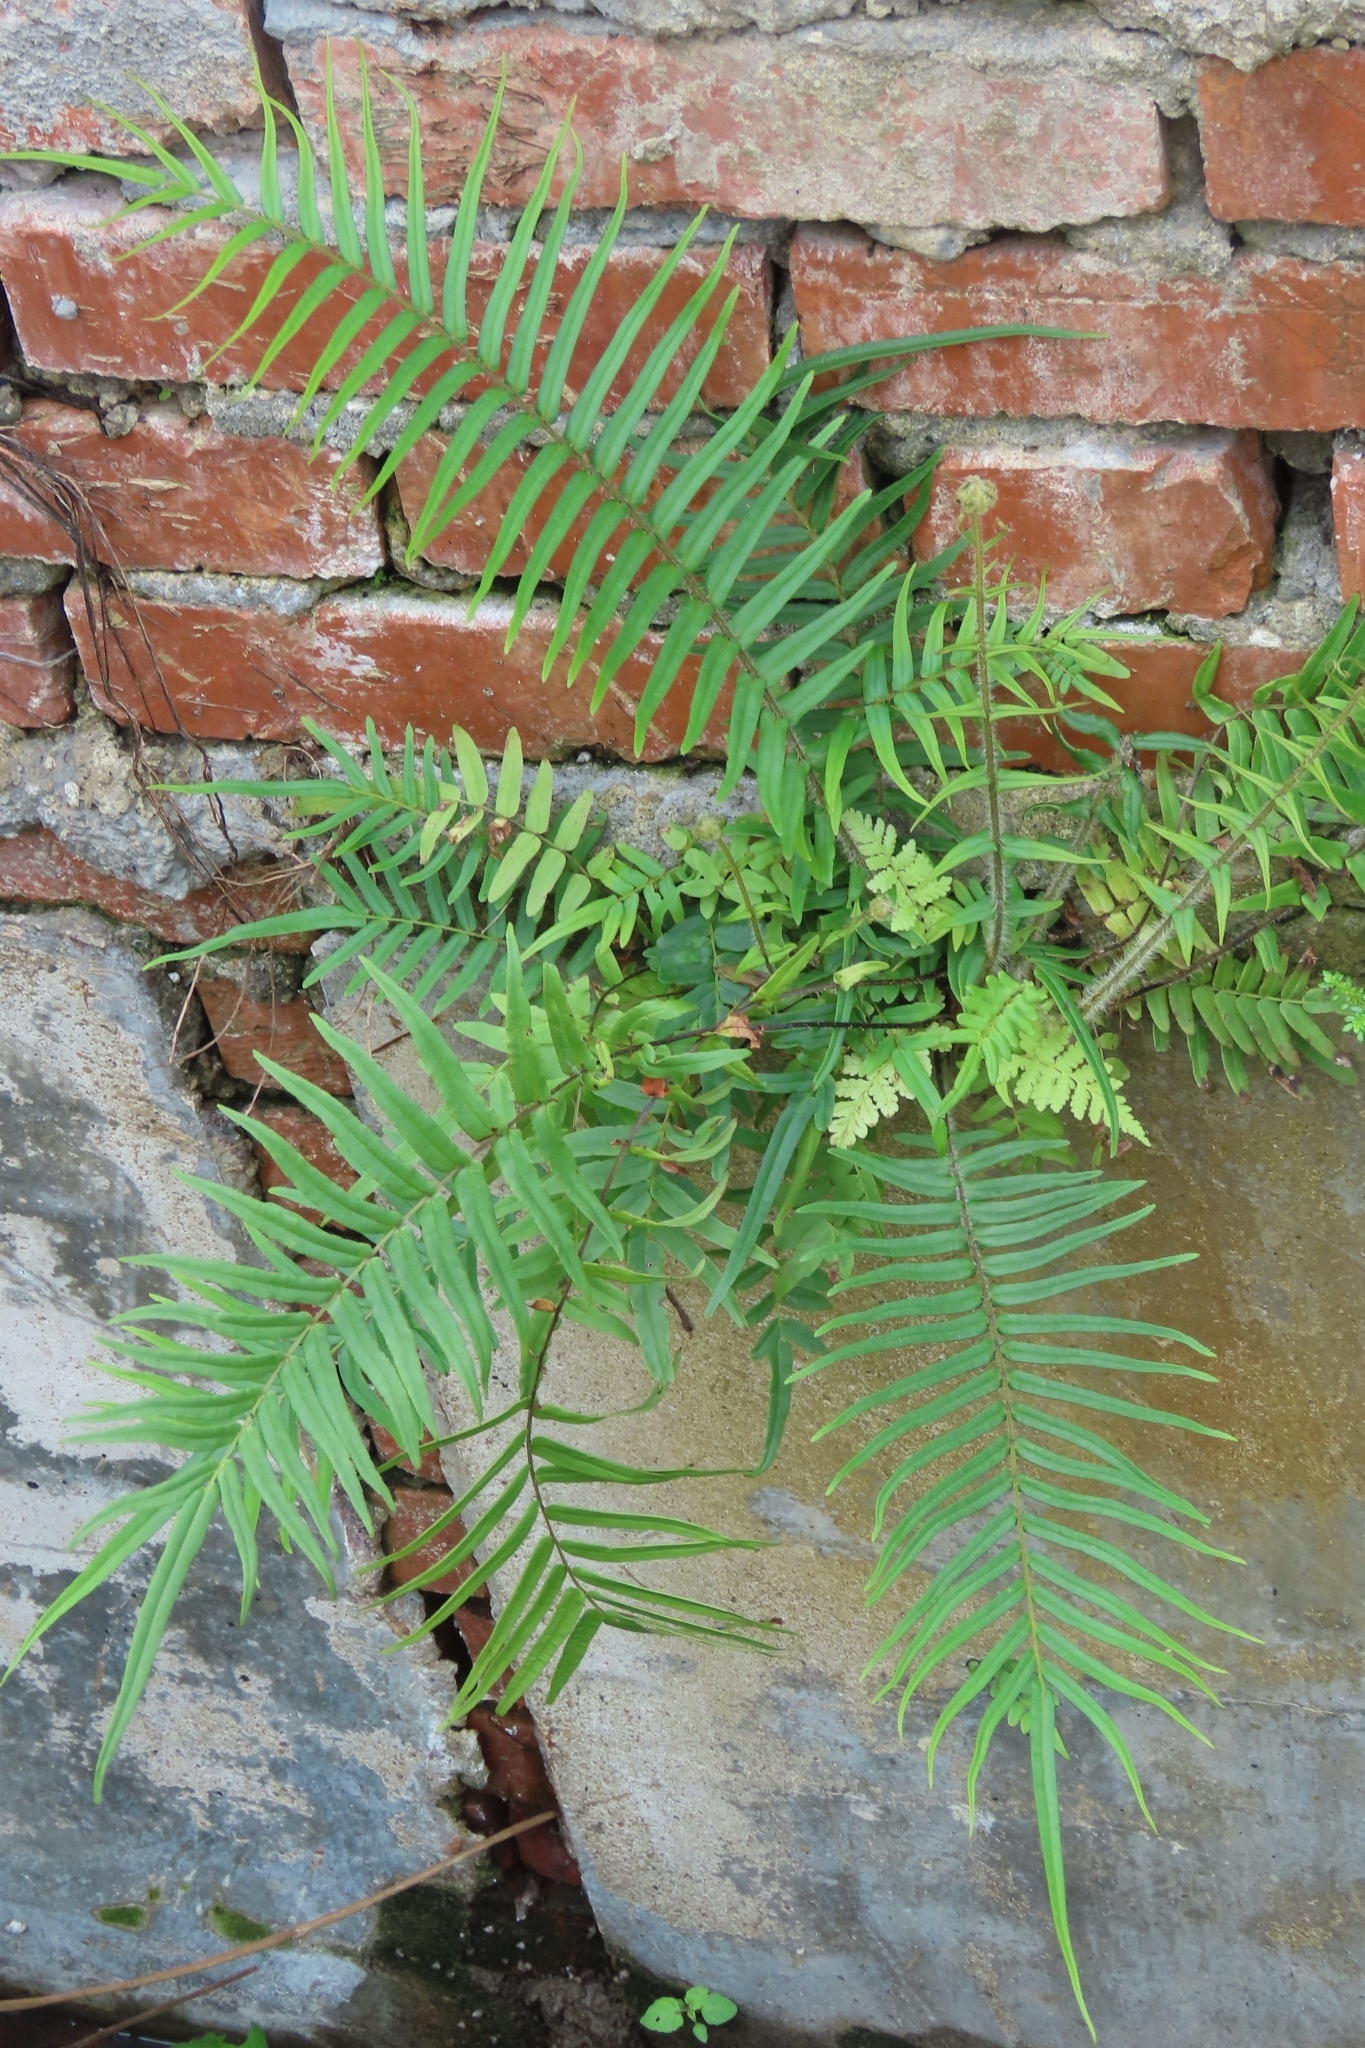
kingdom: Plantae
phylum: Tracheophyta
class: Polypodiopsida
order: Polypodiales
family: Pteridaceae
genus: Pteris
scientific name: Pteris vittata
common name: Ladder brake
